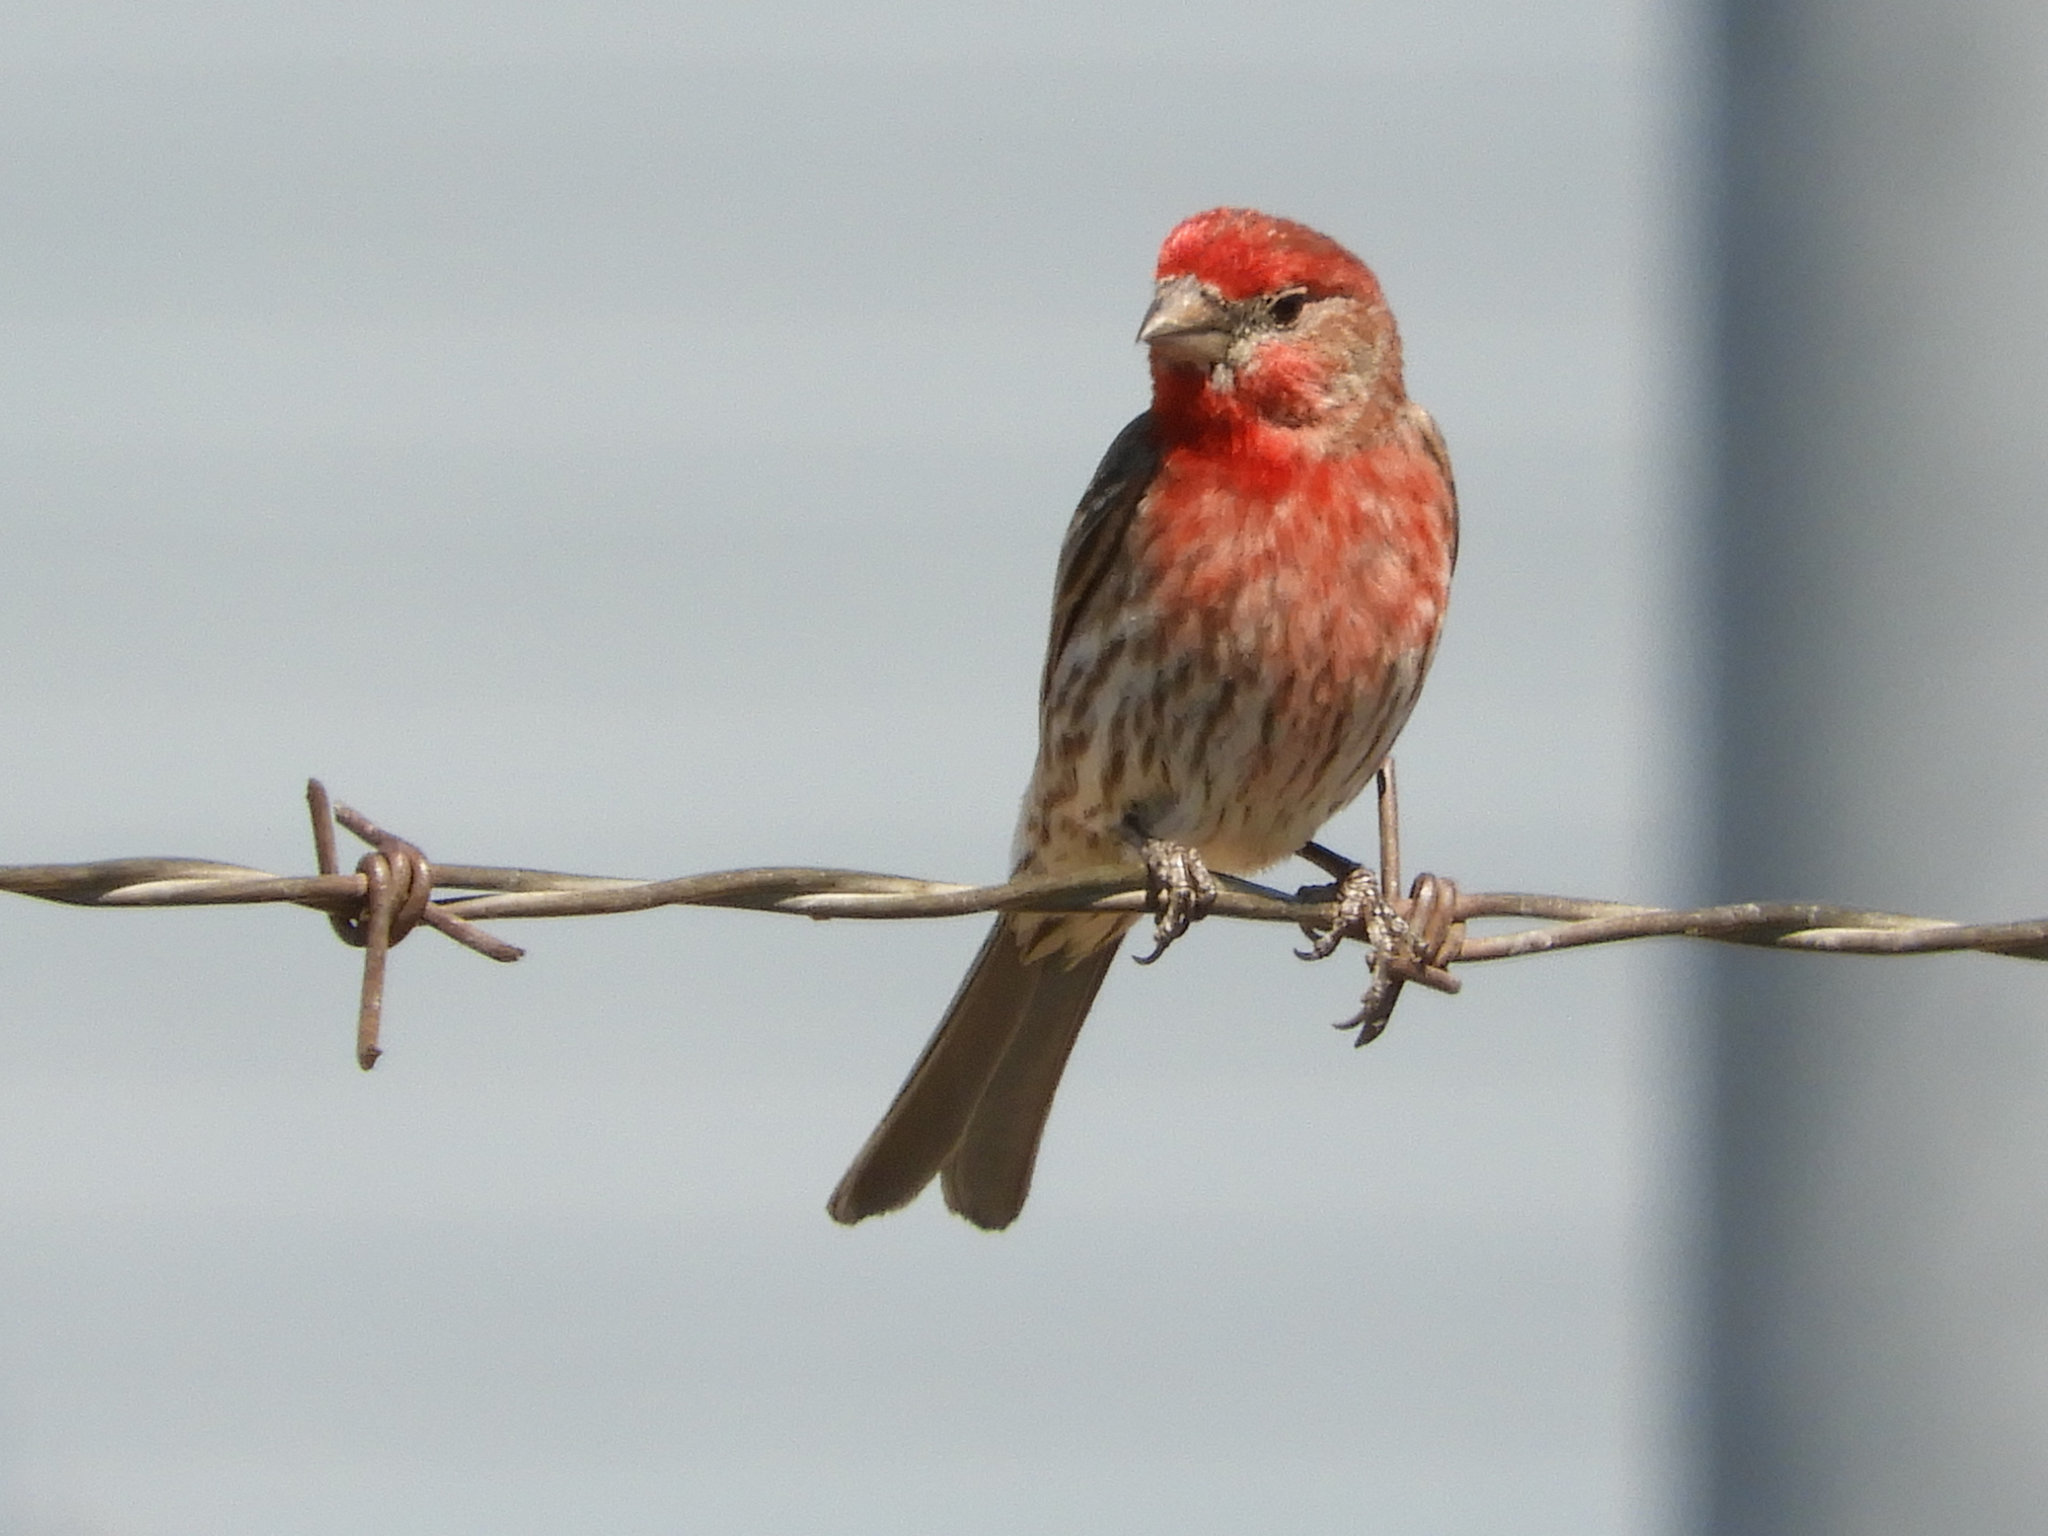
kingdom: Animalia
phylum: Chordata
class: Aves
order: Passeriformes
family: Fringillidae
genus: Haemorhous
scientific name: Haemorhous mexicanus
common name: House finch
